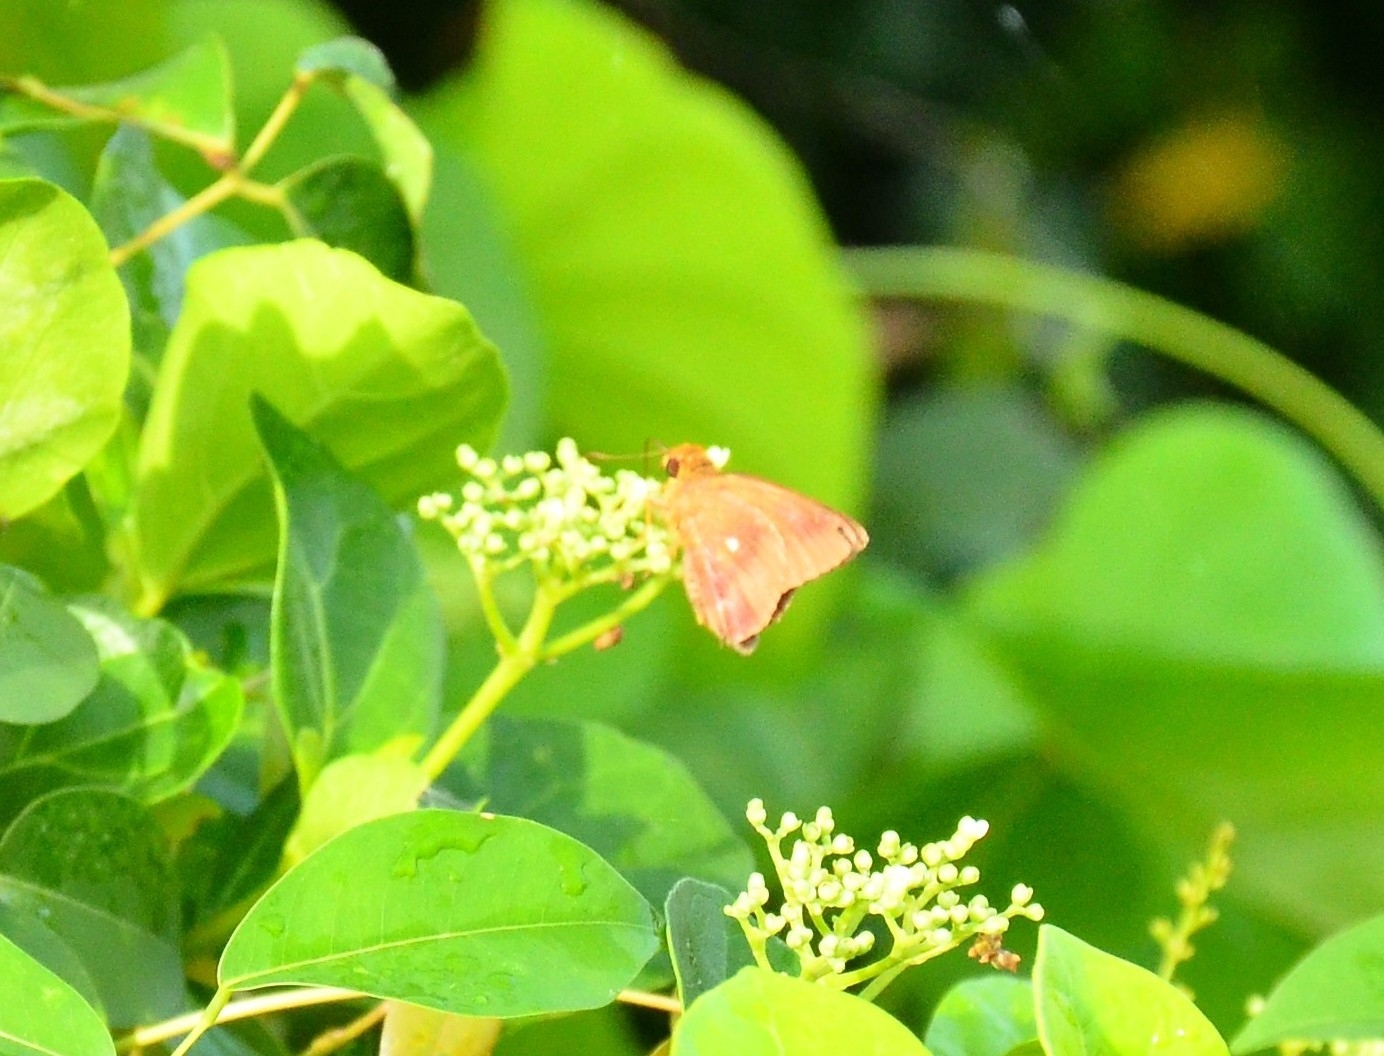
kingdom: Animalia
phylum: Arthropoda
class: Insecta
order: Lepidoptera
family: Hesperiidae
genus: Hasora
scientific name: Hasora badra
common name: Common awl
